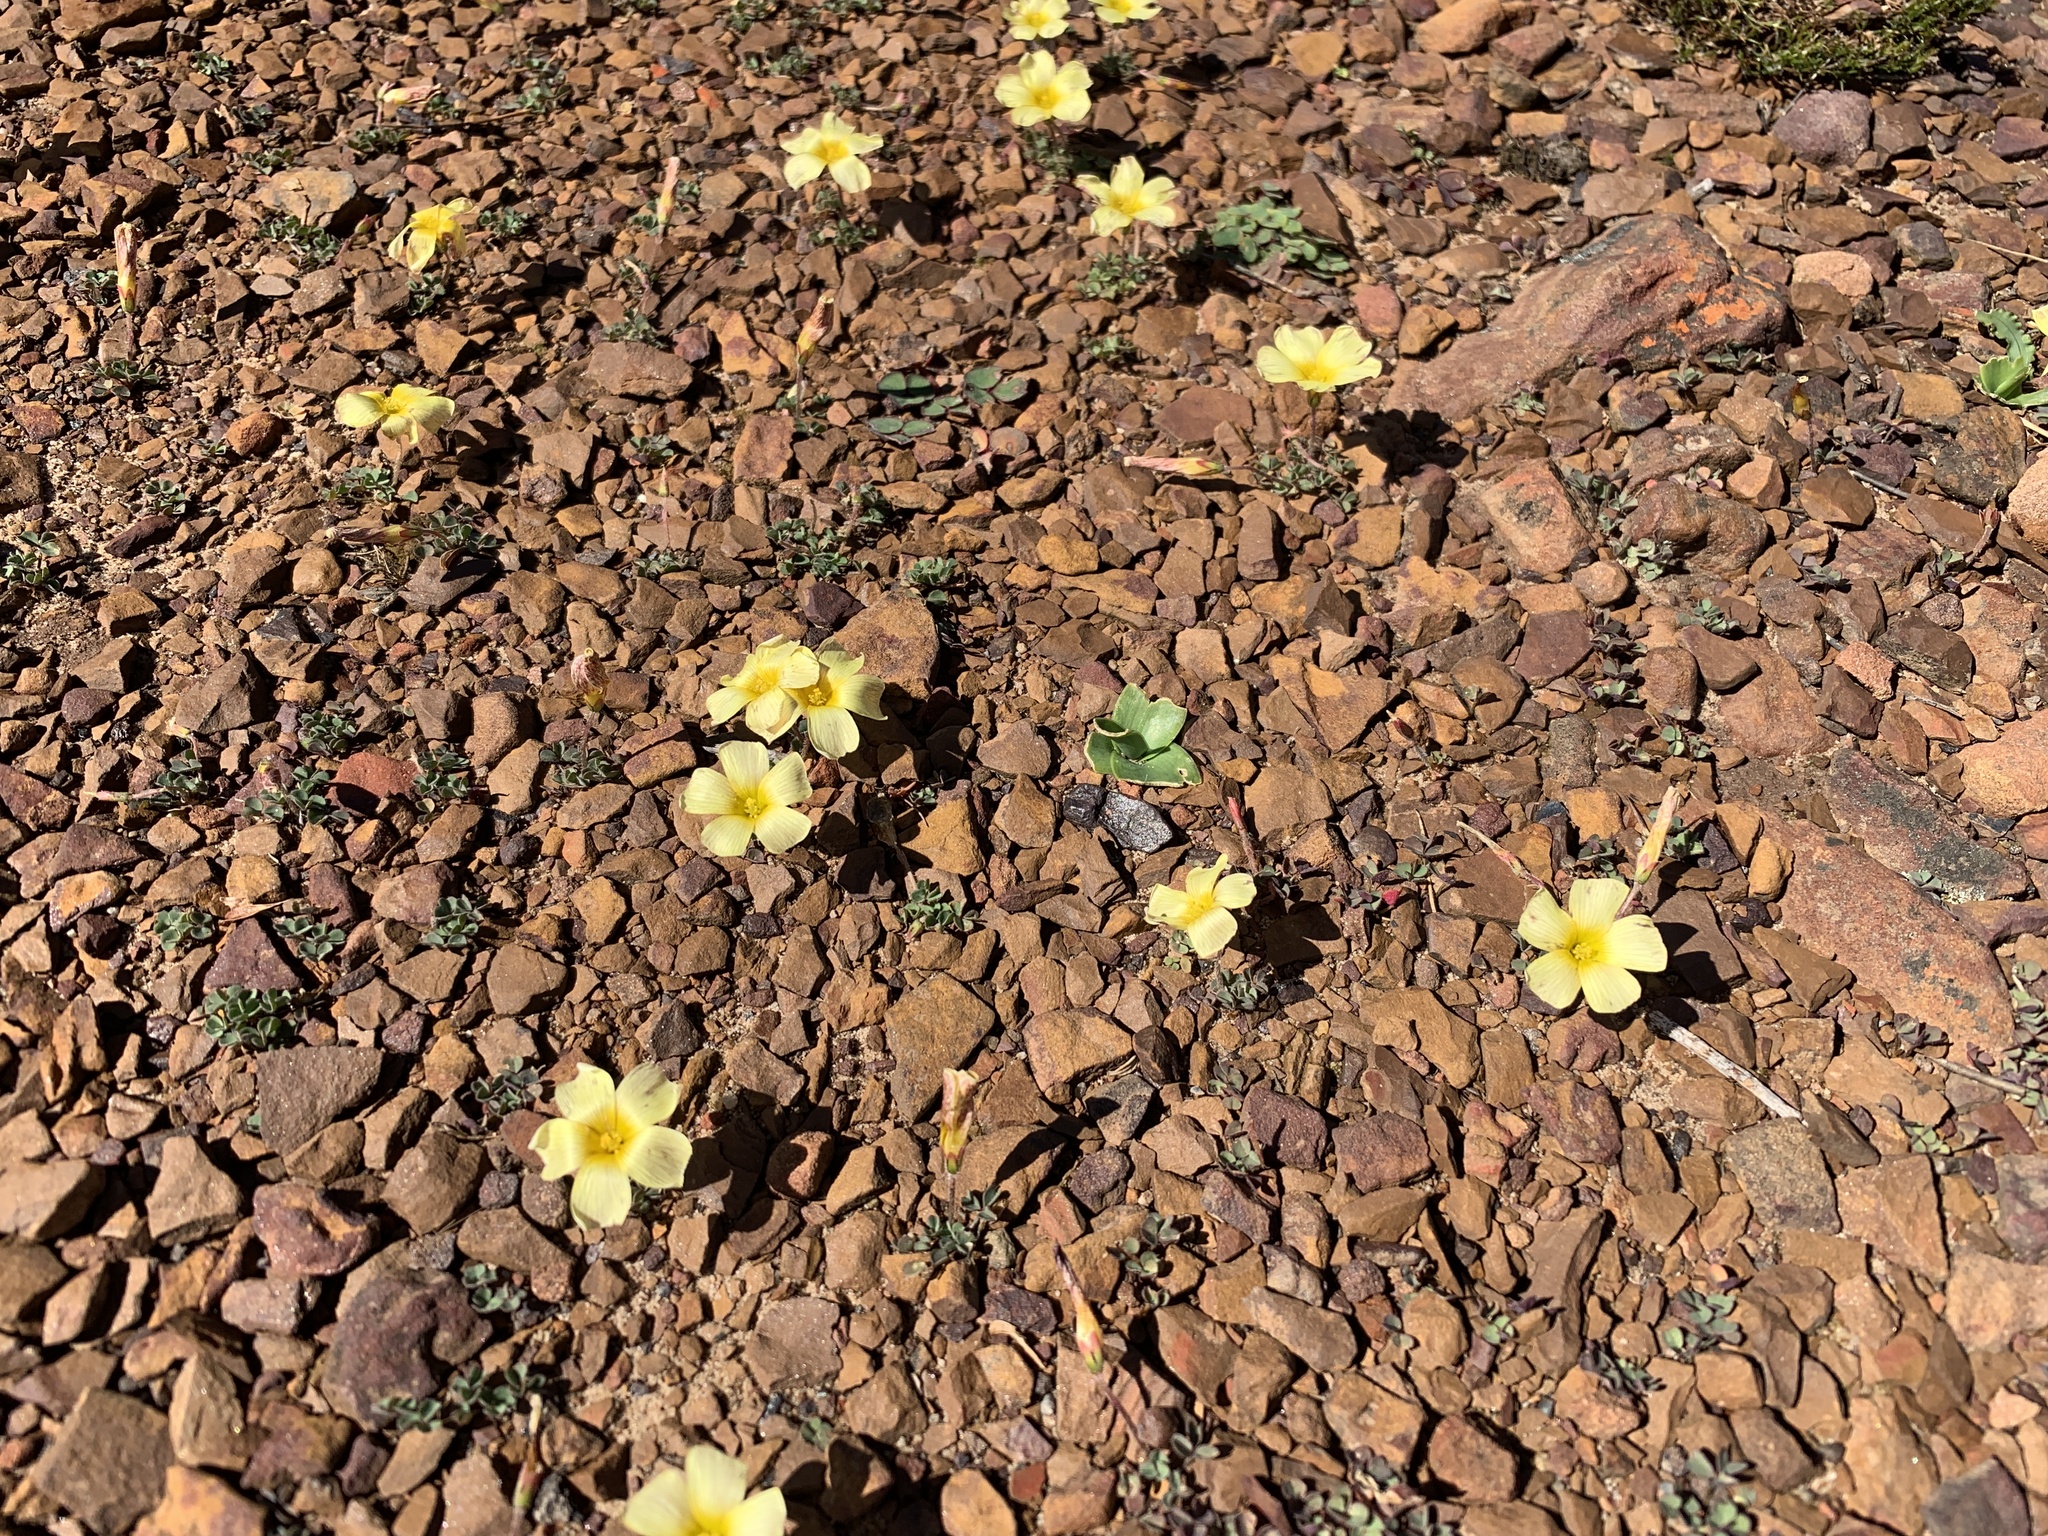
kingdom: Plantae
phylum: Tracheophyta
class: Magnoliopsida
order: Oxalidales
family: Oxalidaceae
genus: Oxalis
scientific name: Oxalis obtusa
